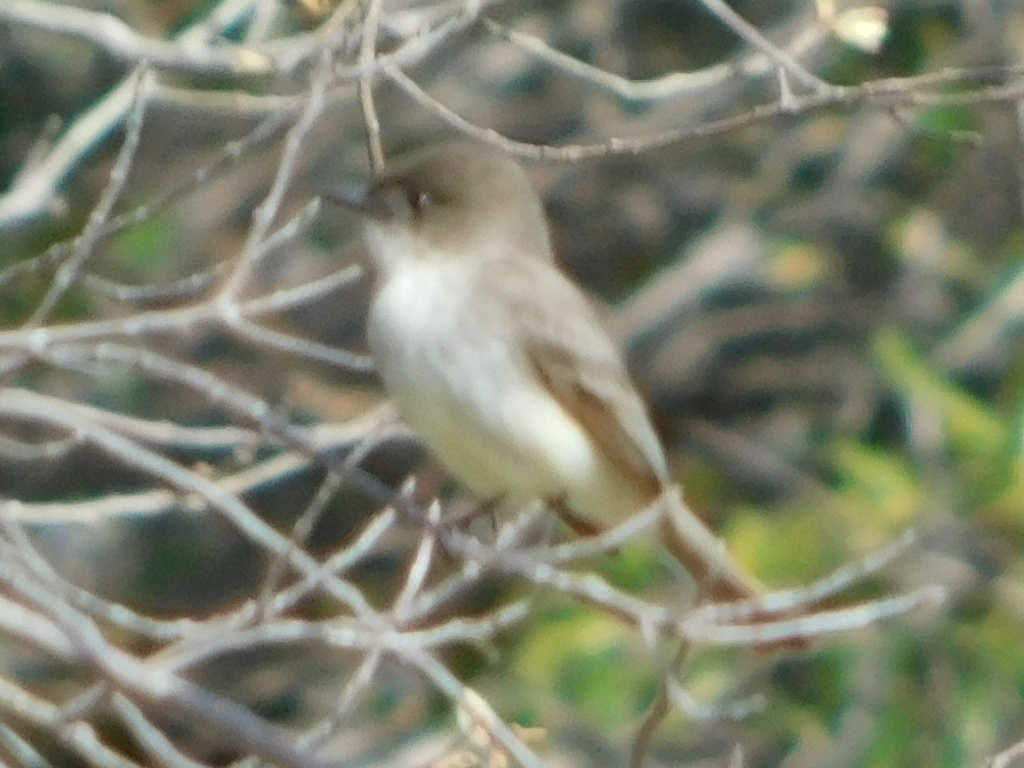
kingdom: Animalia
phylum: Chordata
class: Aves
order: Passeriformes
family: Tyrannidae
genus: Sayornis
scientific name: Sayornis phoebe
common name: Eastern phoebe
